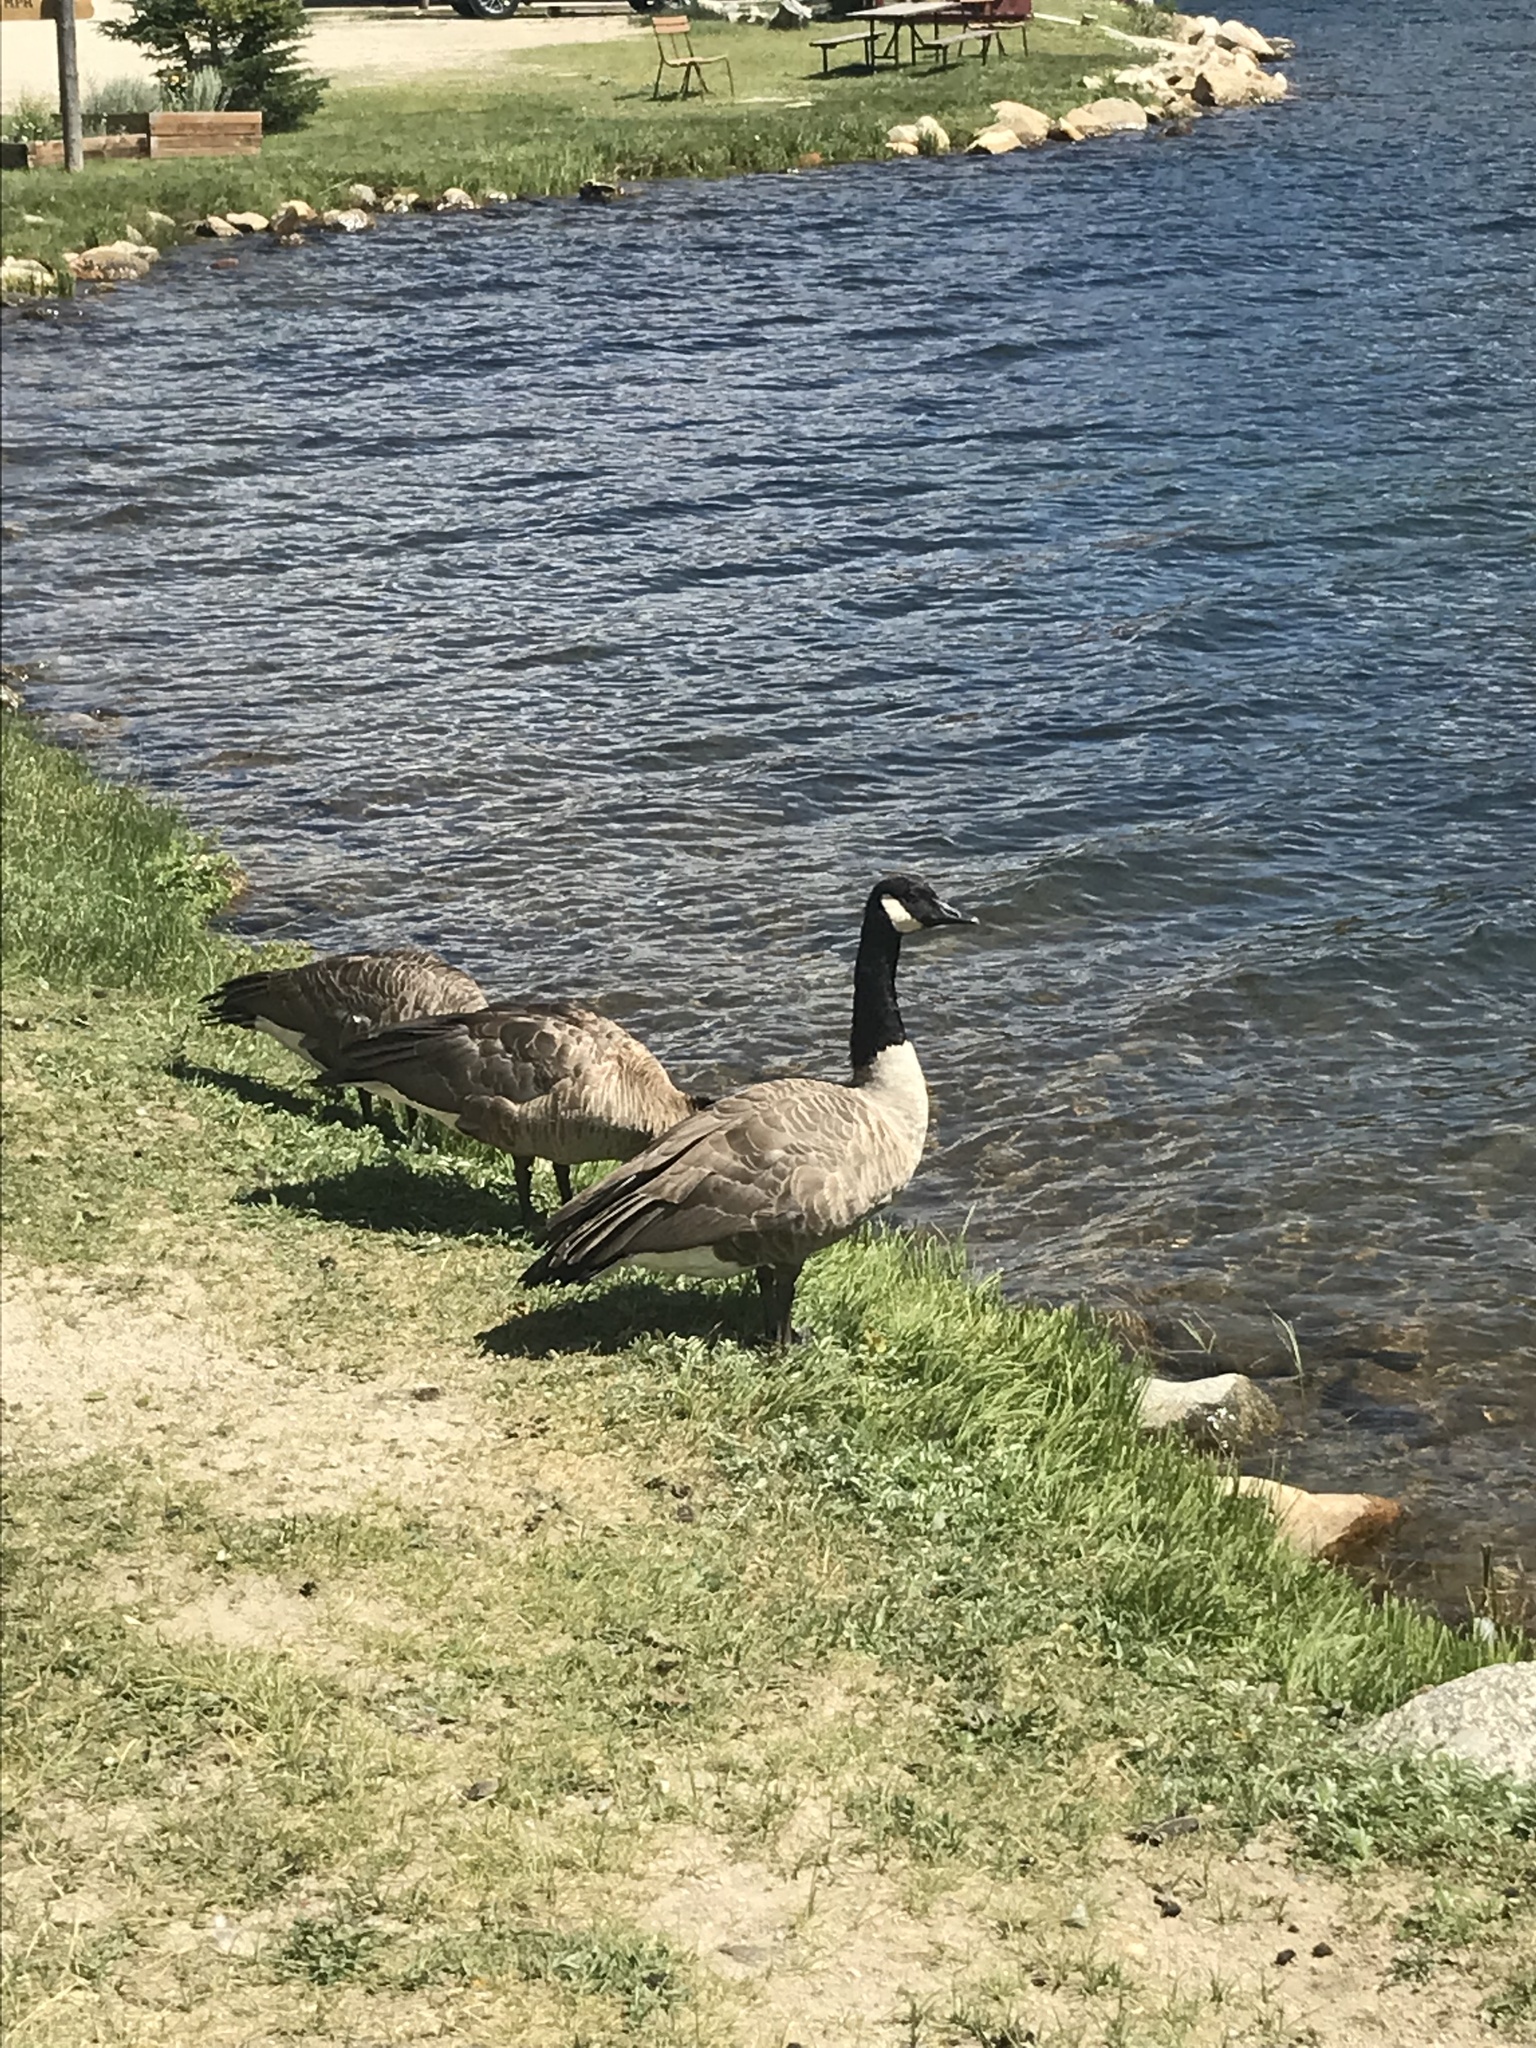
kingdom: Animalia
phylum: Chordata
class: Aves
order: Anseriformes
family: Anatidae
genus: Branta
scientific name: Branta canadensis
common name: Canada goose
